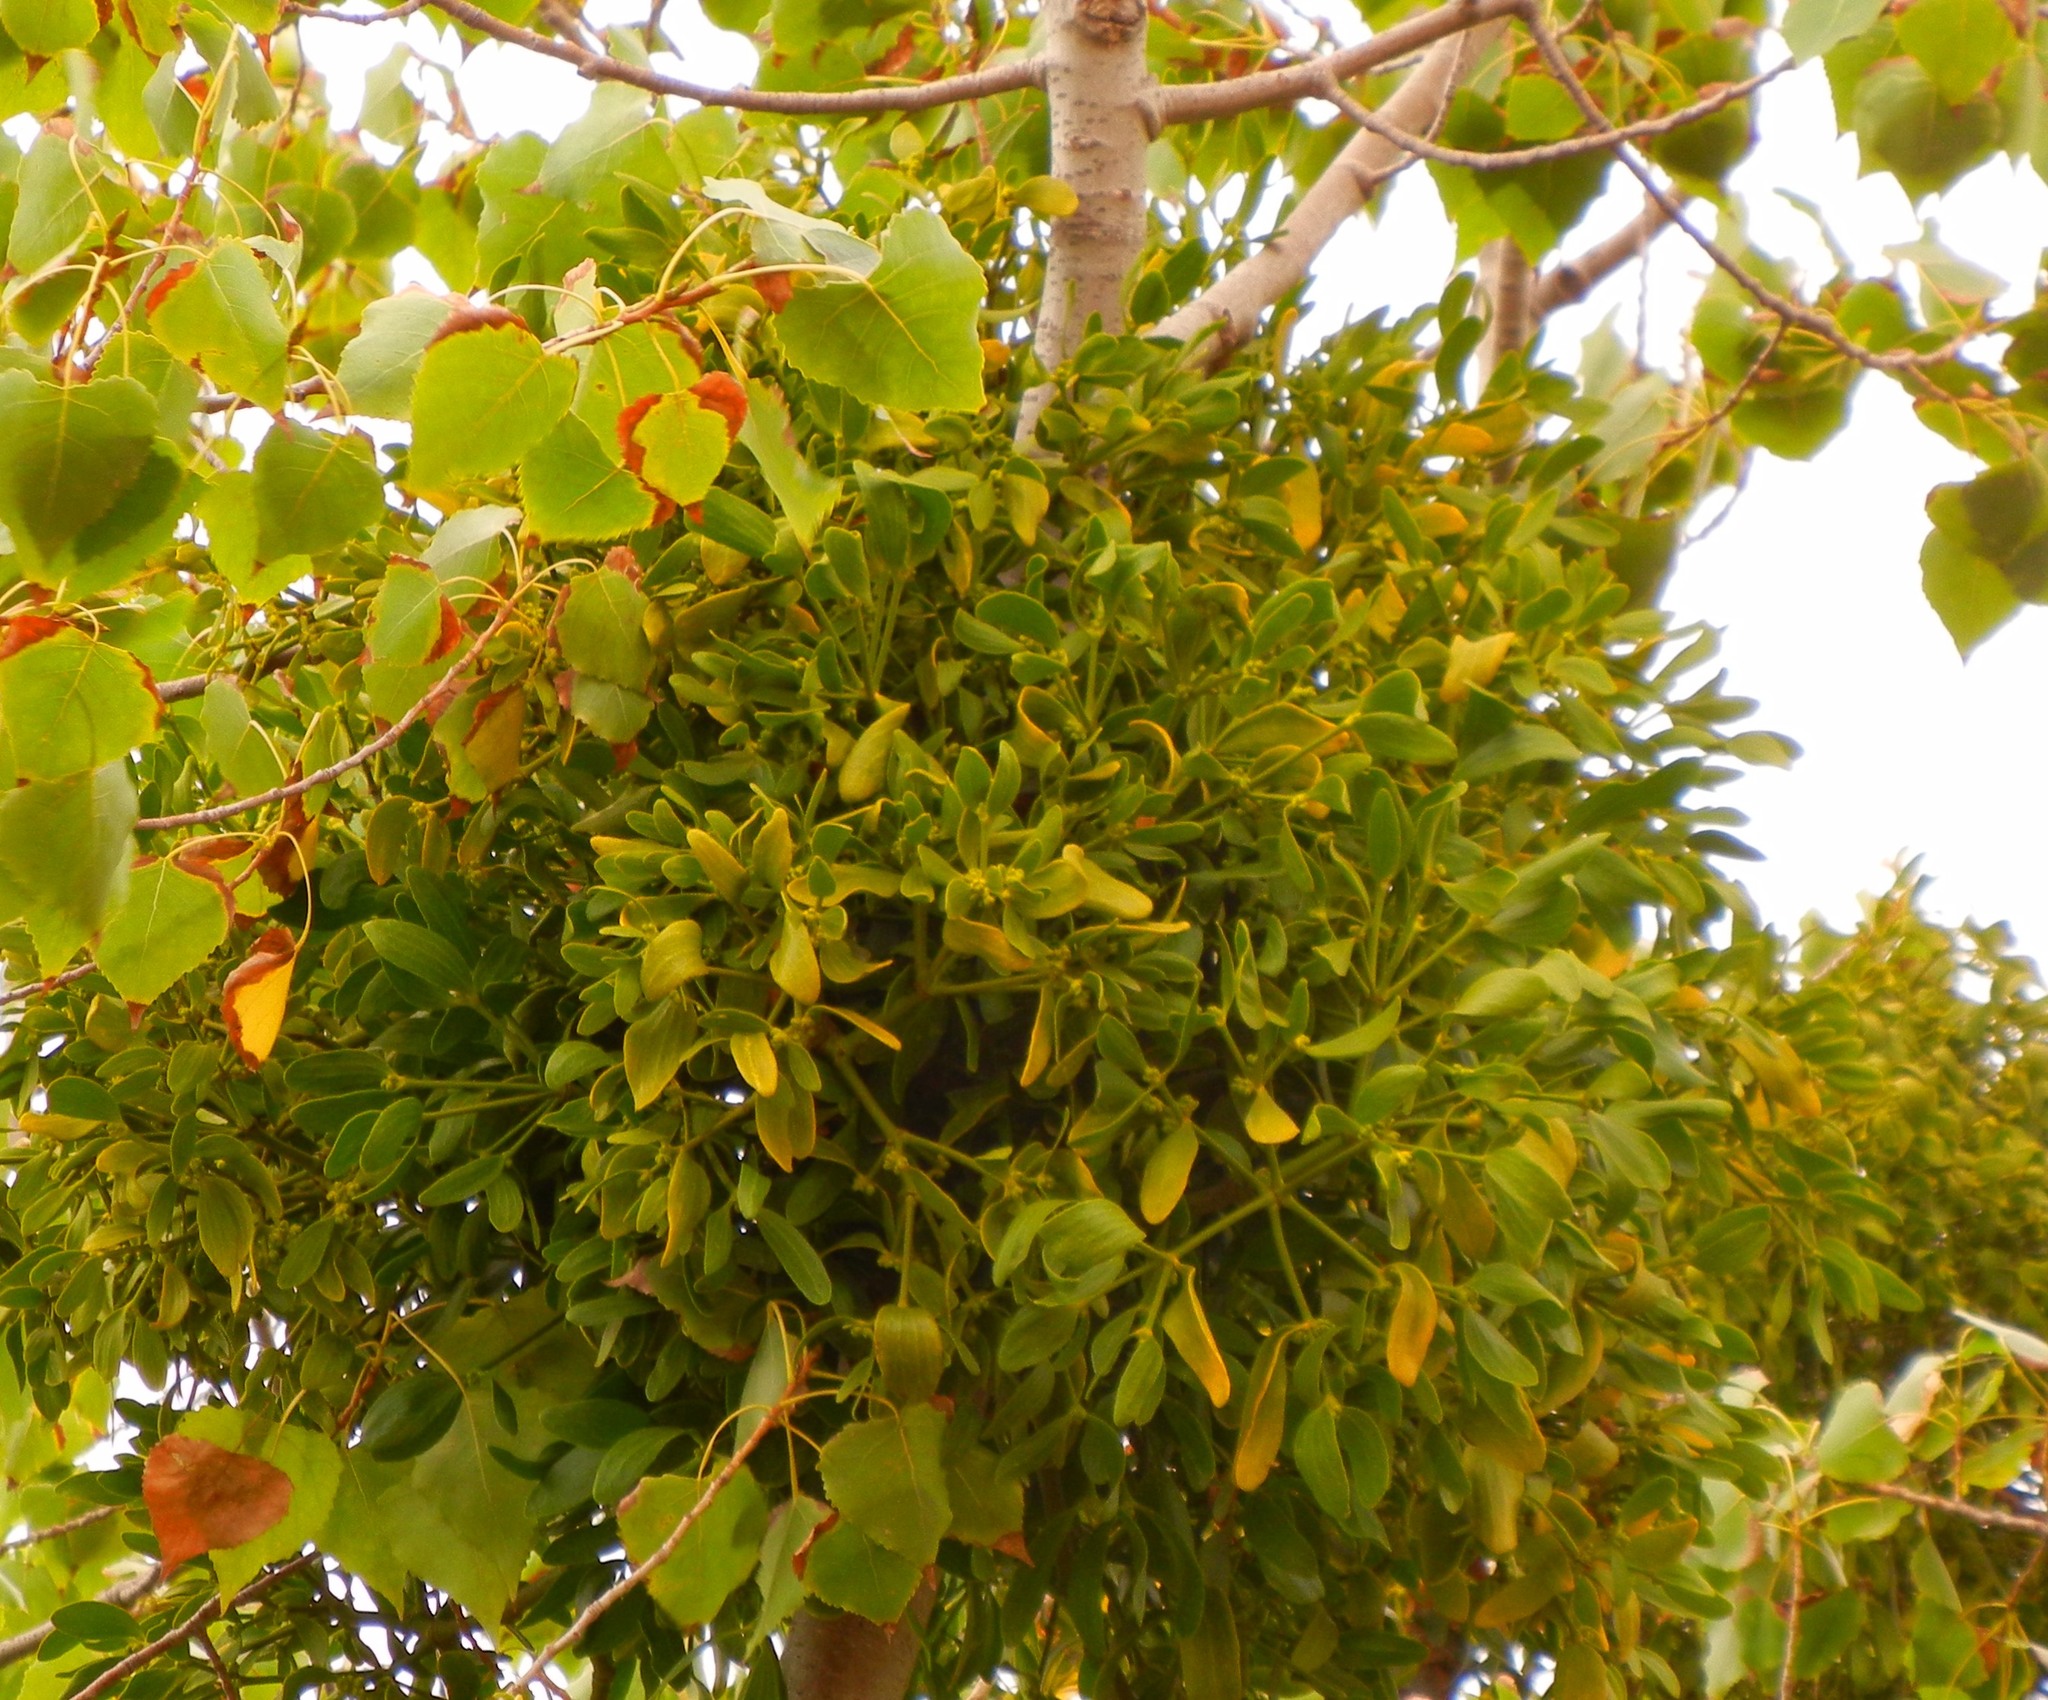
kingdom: Plantae
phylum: Tracheophyta
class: Magnoliopsida
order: Santalales
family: Viscaceae
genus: Viscum
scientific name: Viscum album
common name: Mistletoe
